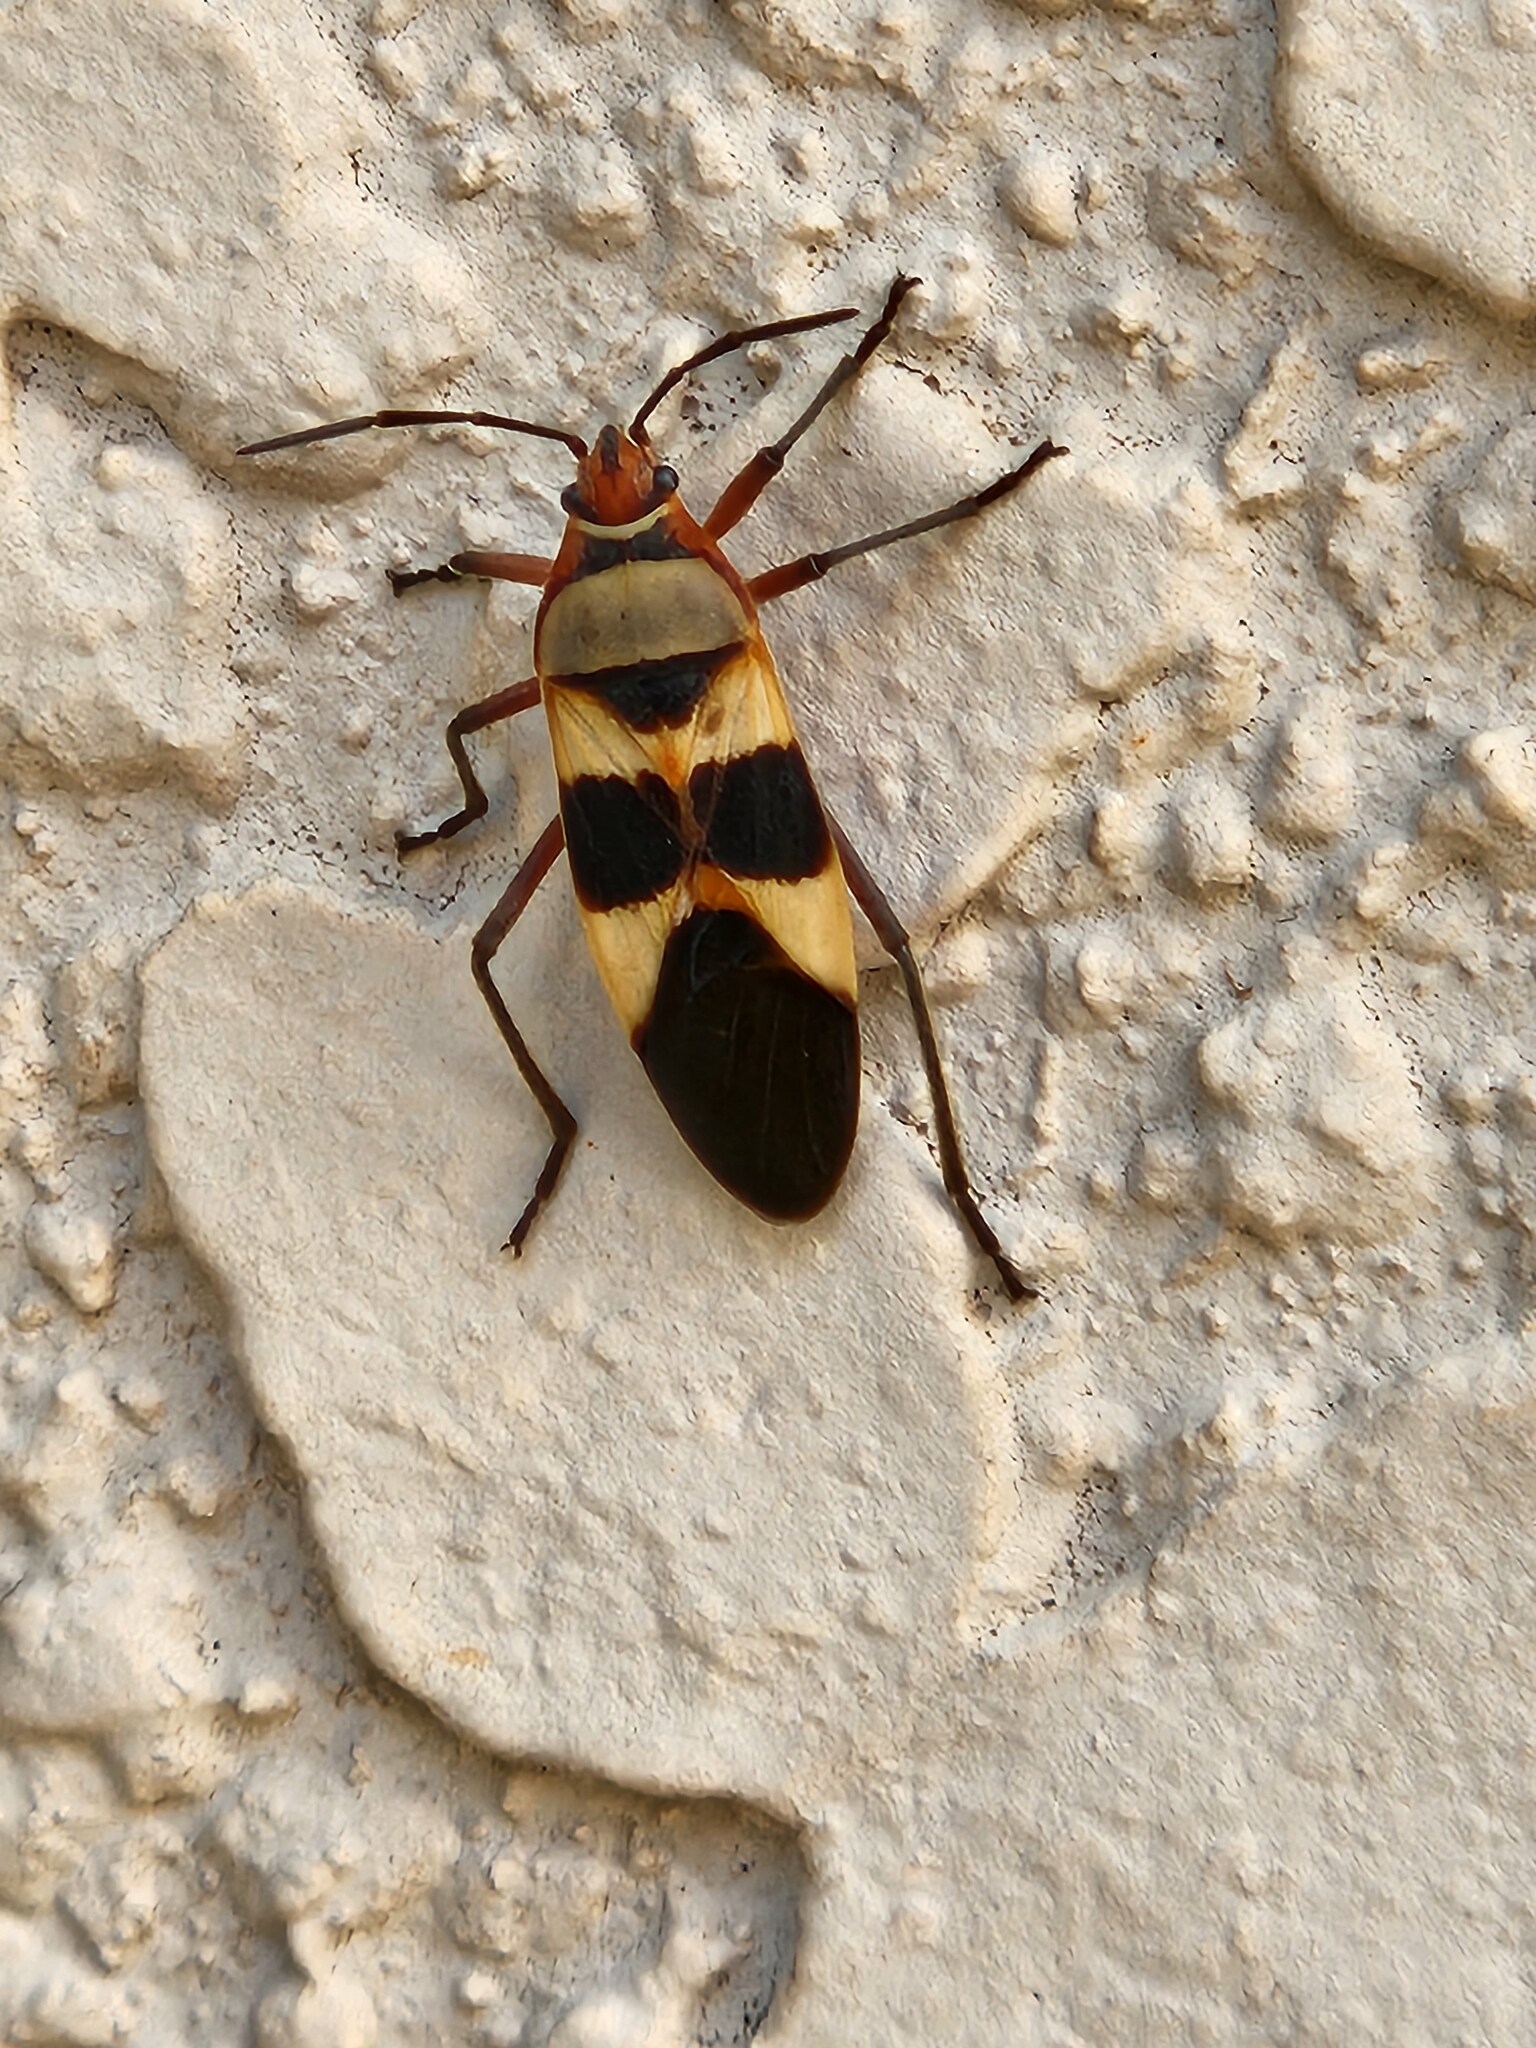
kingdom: Animalia
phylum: Arthropoda
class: Insecta
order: Hemiptera
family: Lygaeidae
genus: Oncopeltus
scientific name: Oncopeltus unifasciatellus
